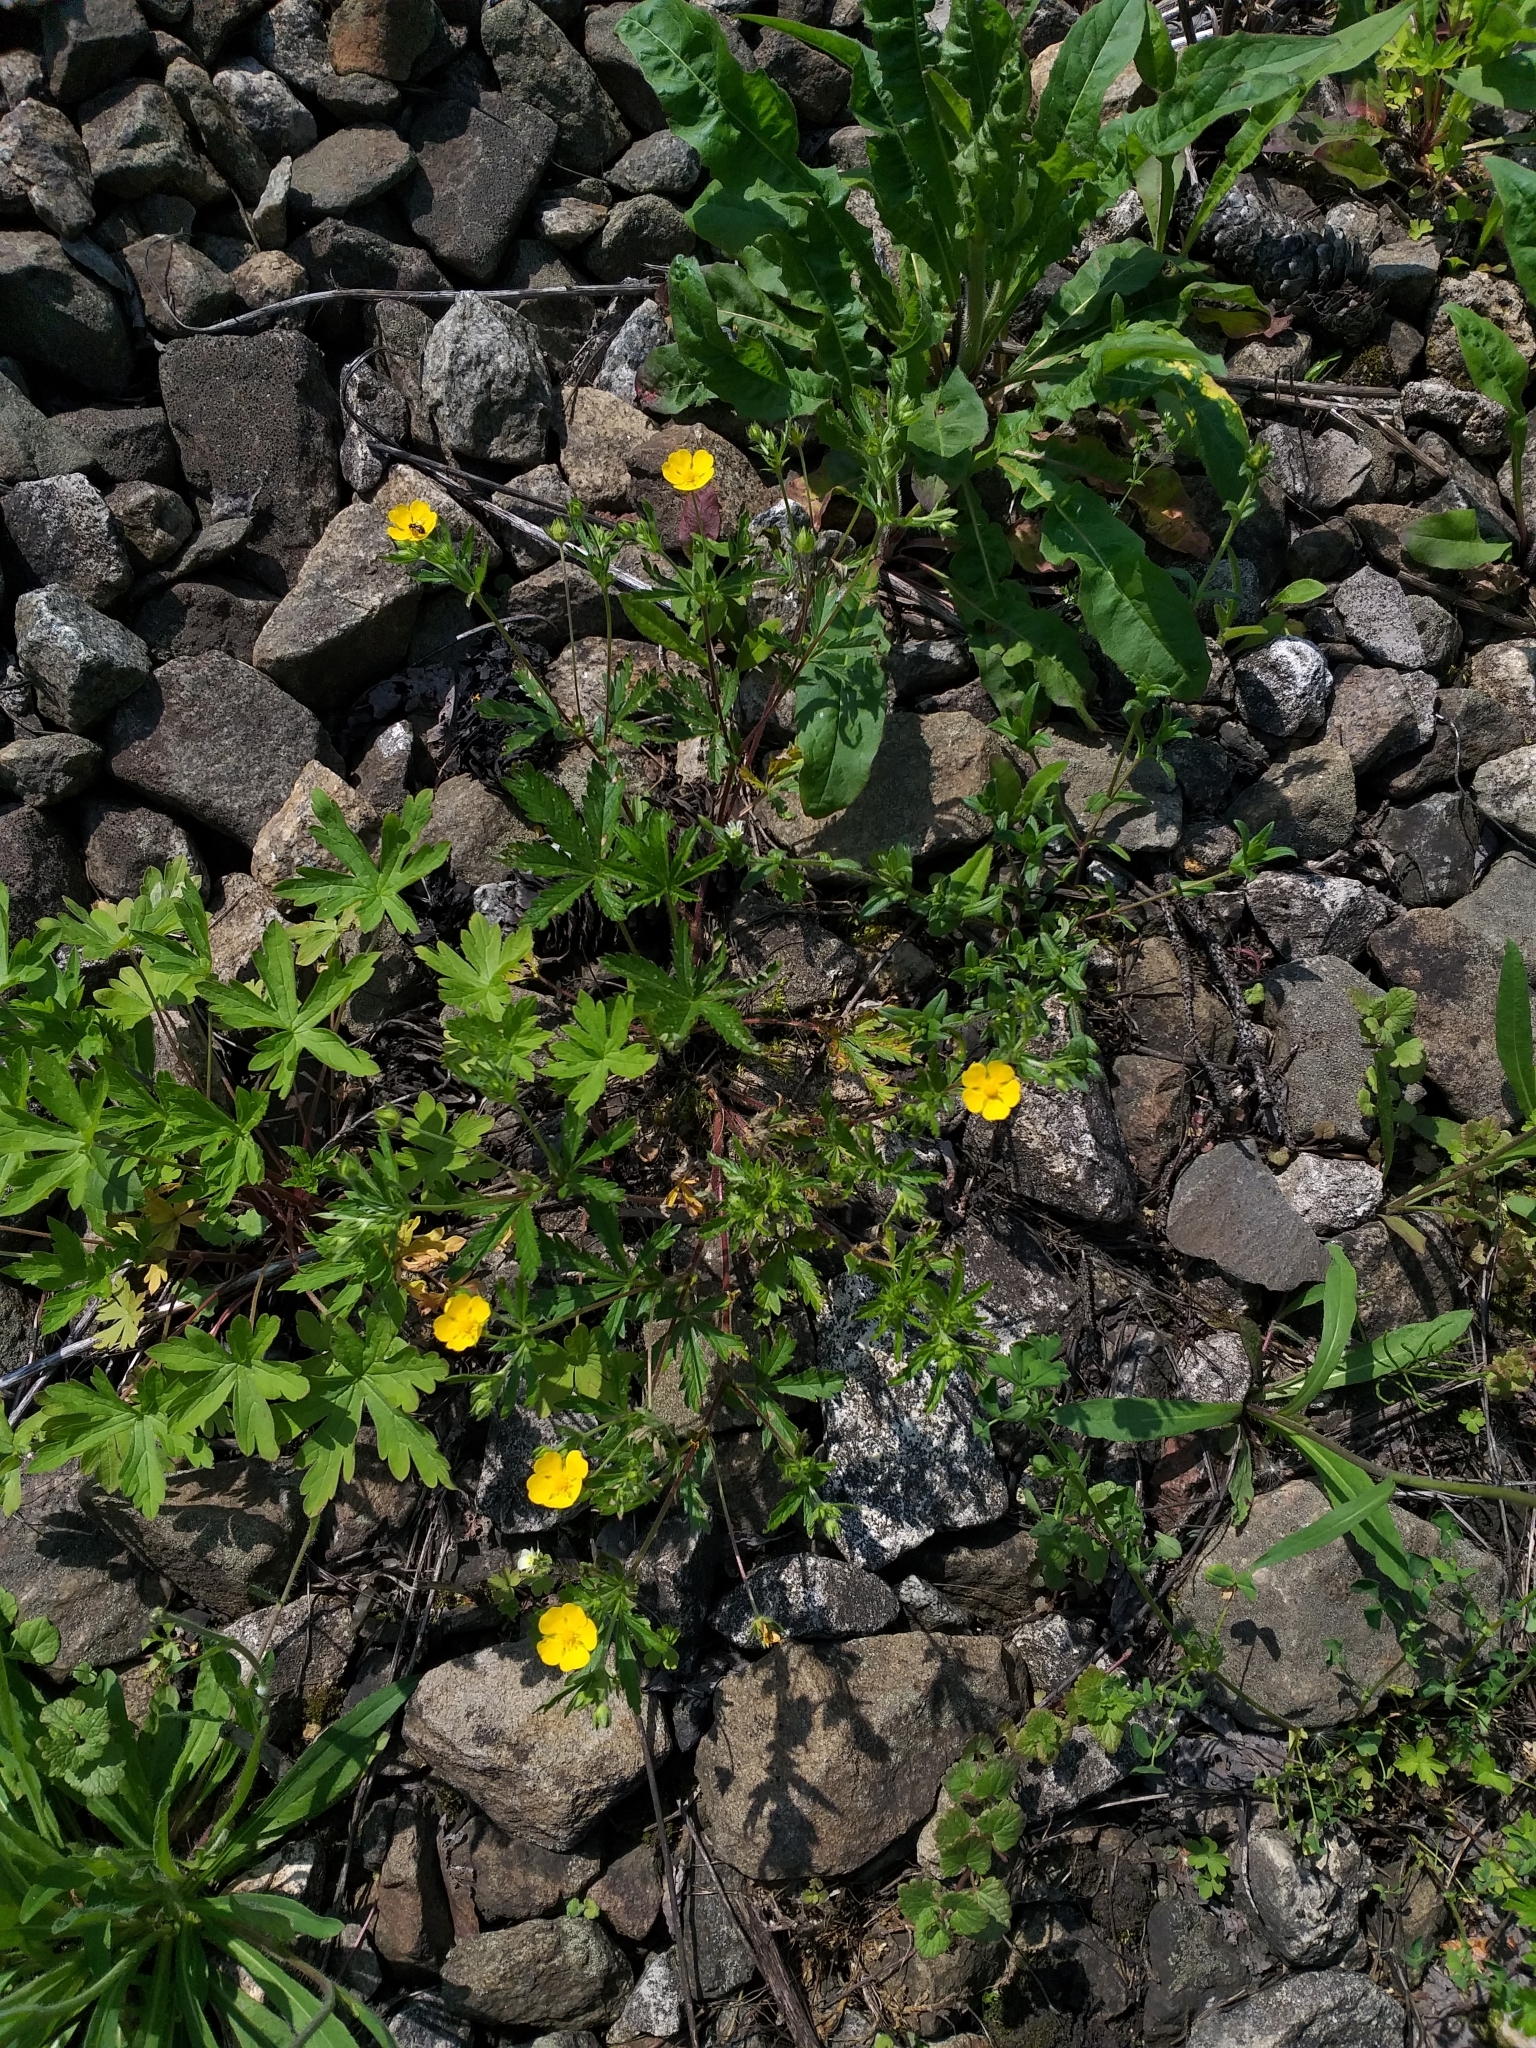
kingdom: Plantae
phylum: Tracheophyta
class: Magnoliopsida
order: Rosales
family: Rosaceae
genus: Potentilla
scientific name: Potentilla thuringiaca
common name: European cinquefoil
